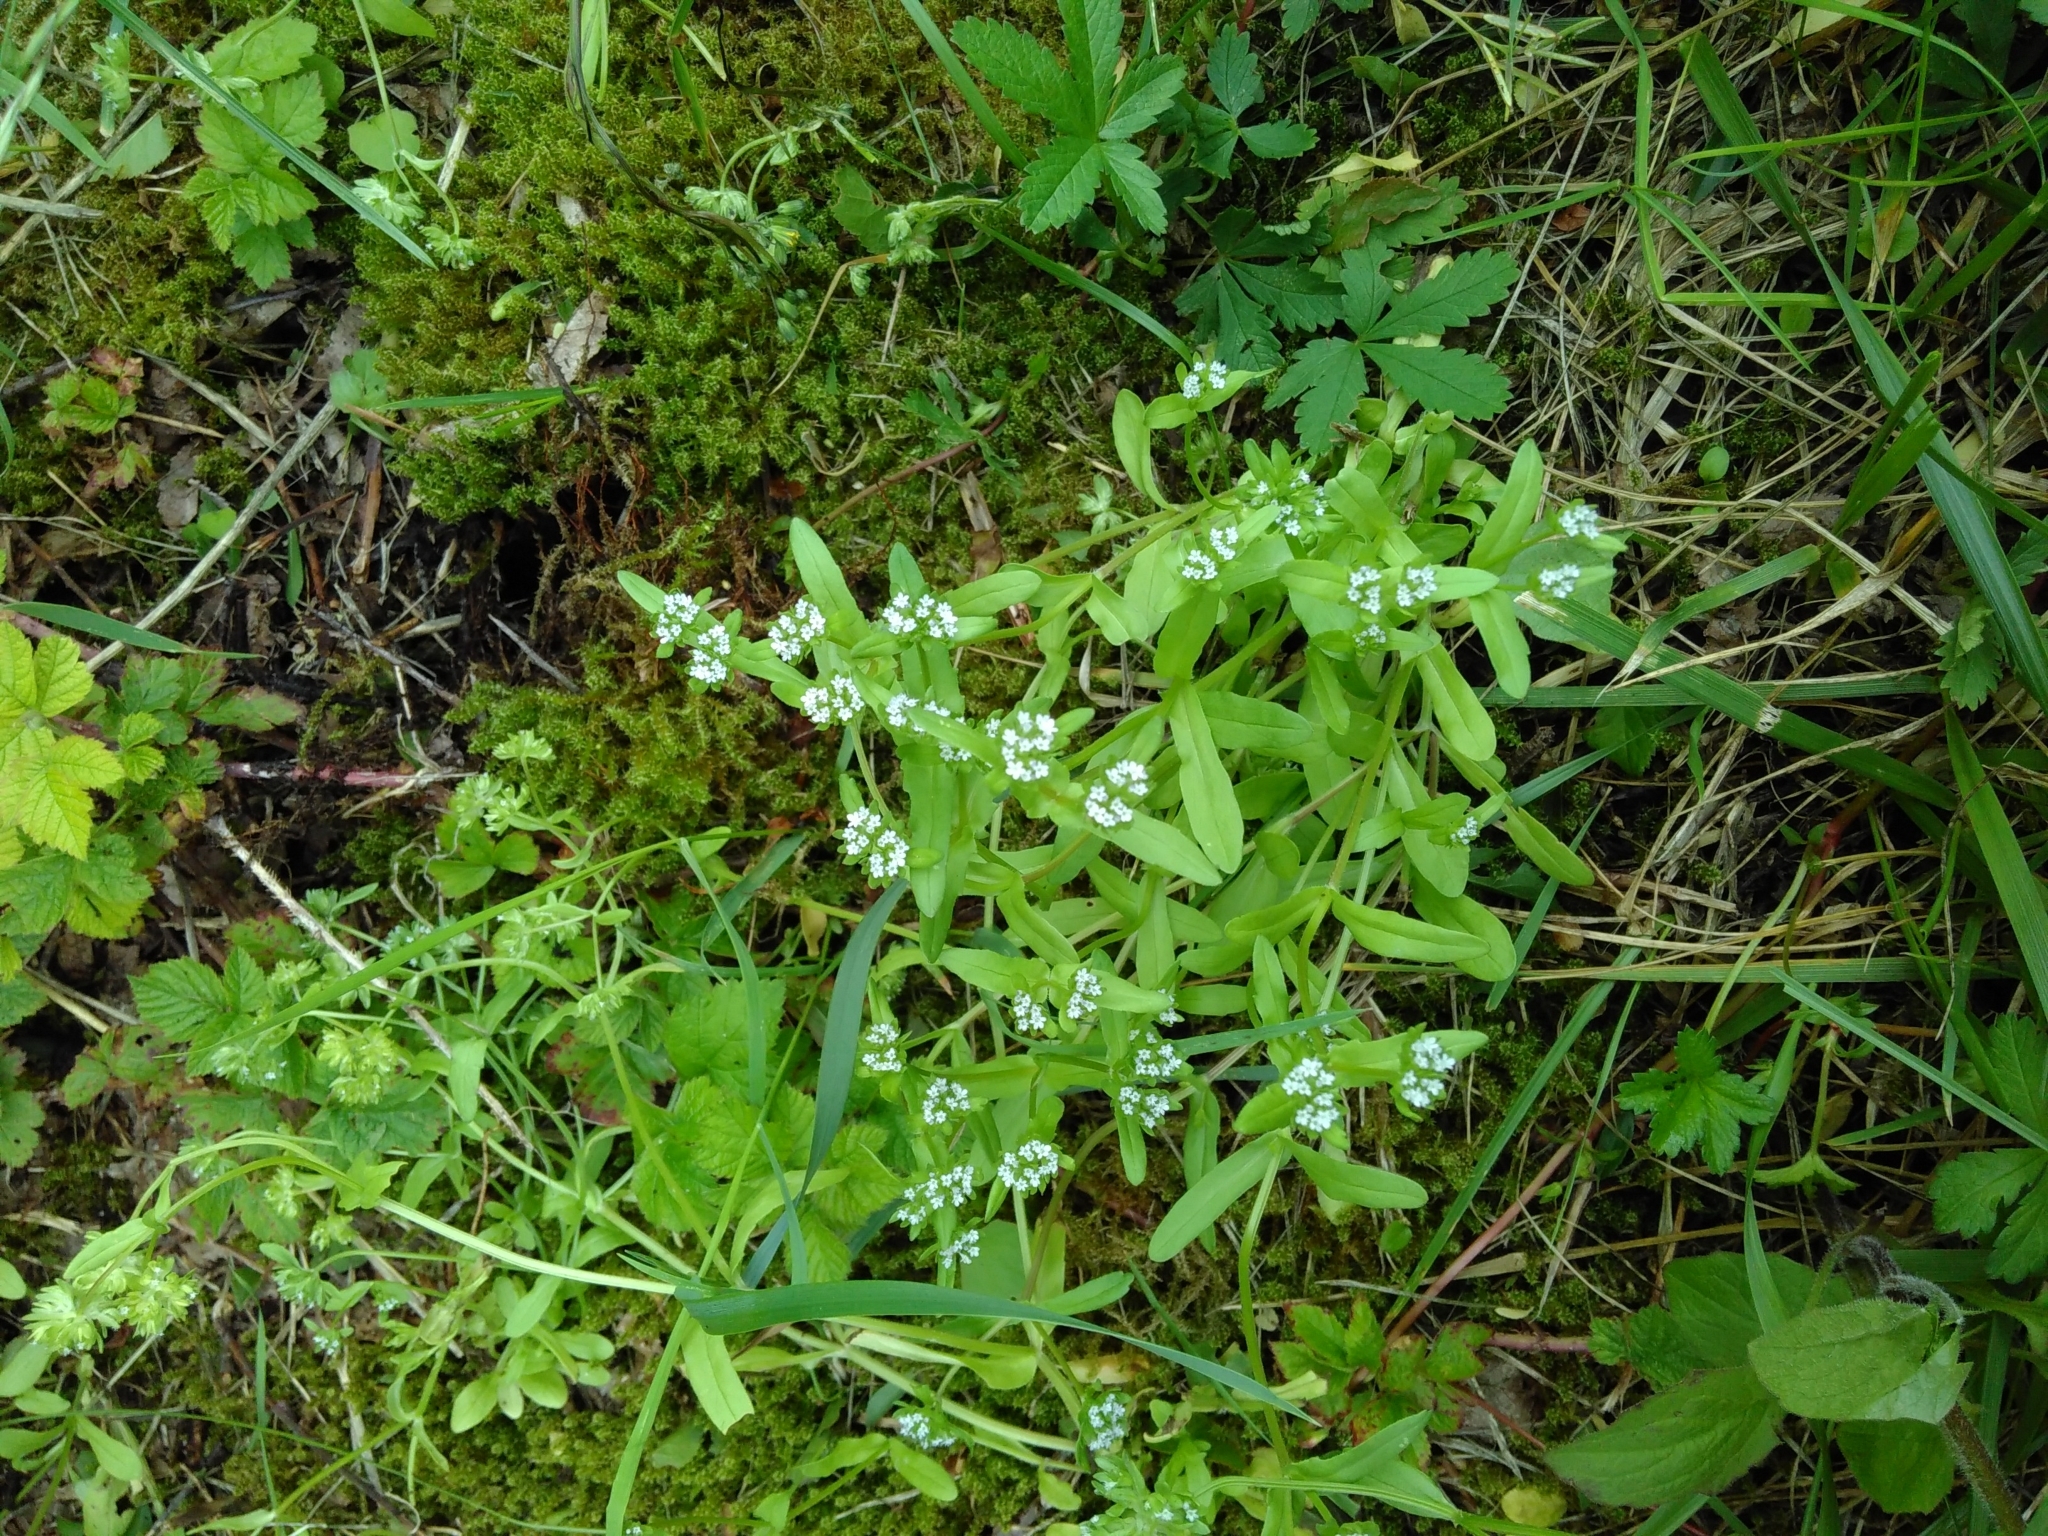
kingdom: Plantae
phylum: Tracheophyta
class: Magnoliopsida
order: Dipsacales
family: Caprifoliaceae
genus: Valerianella
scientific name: Valerianella locusta
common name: Common cornsalad
